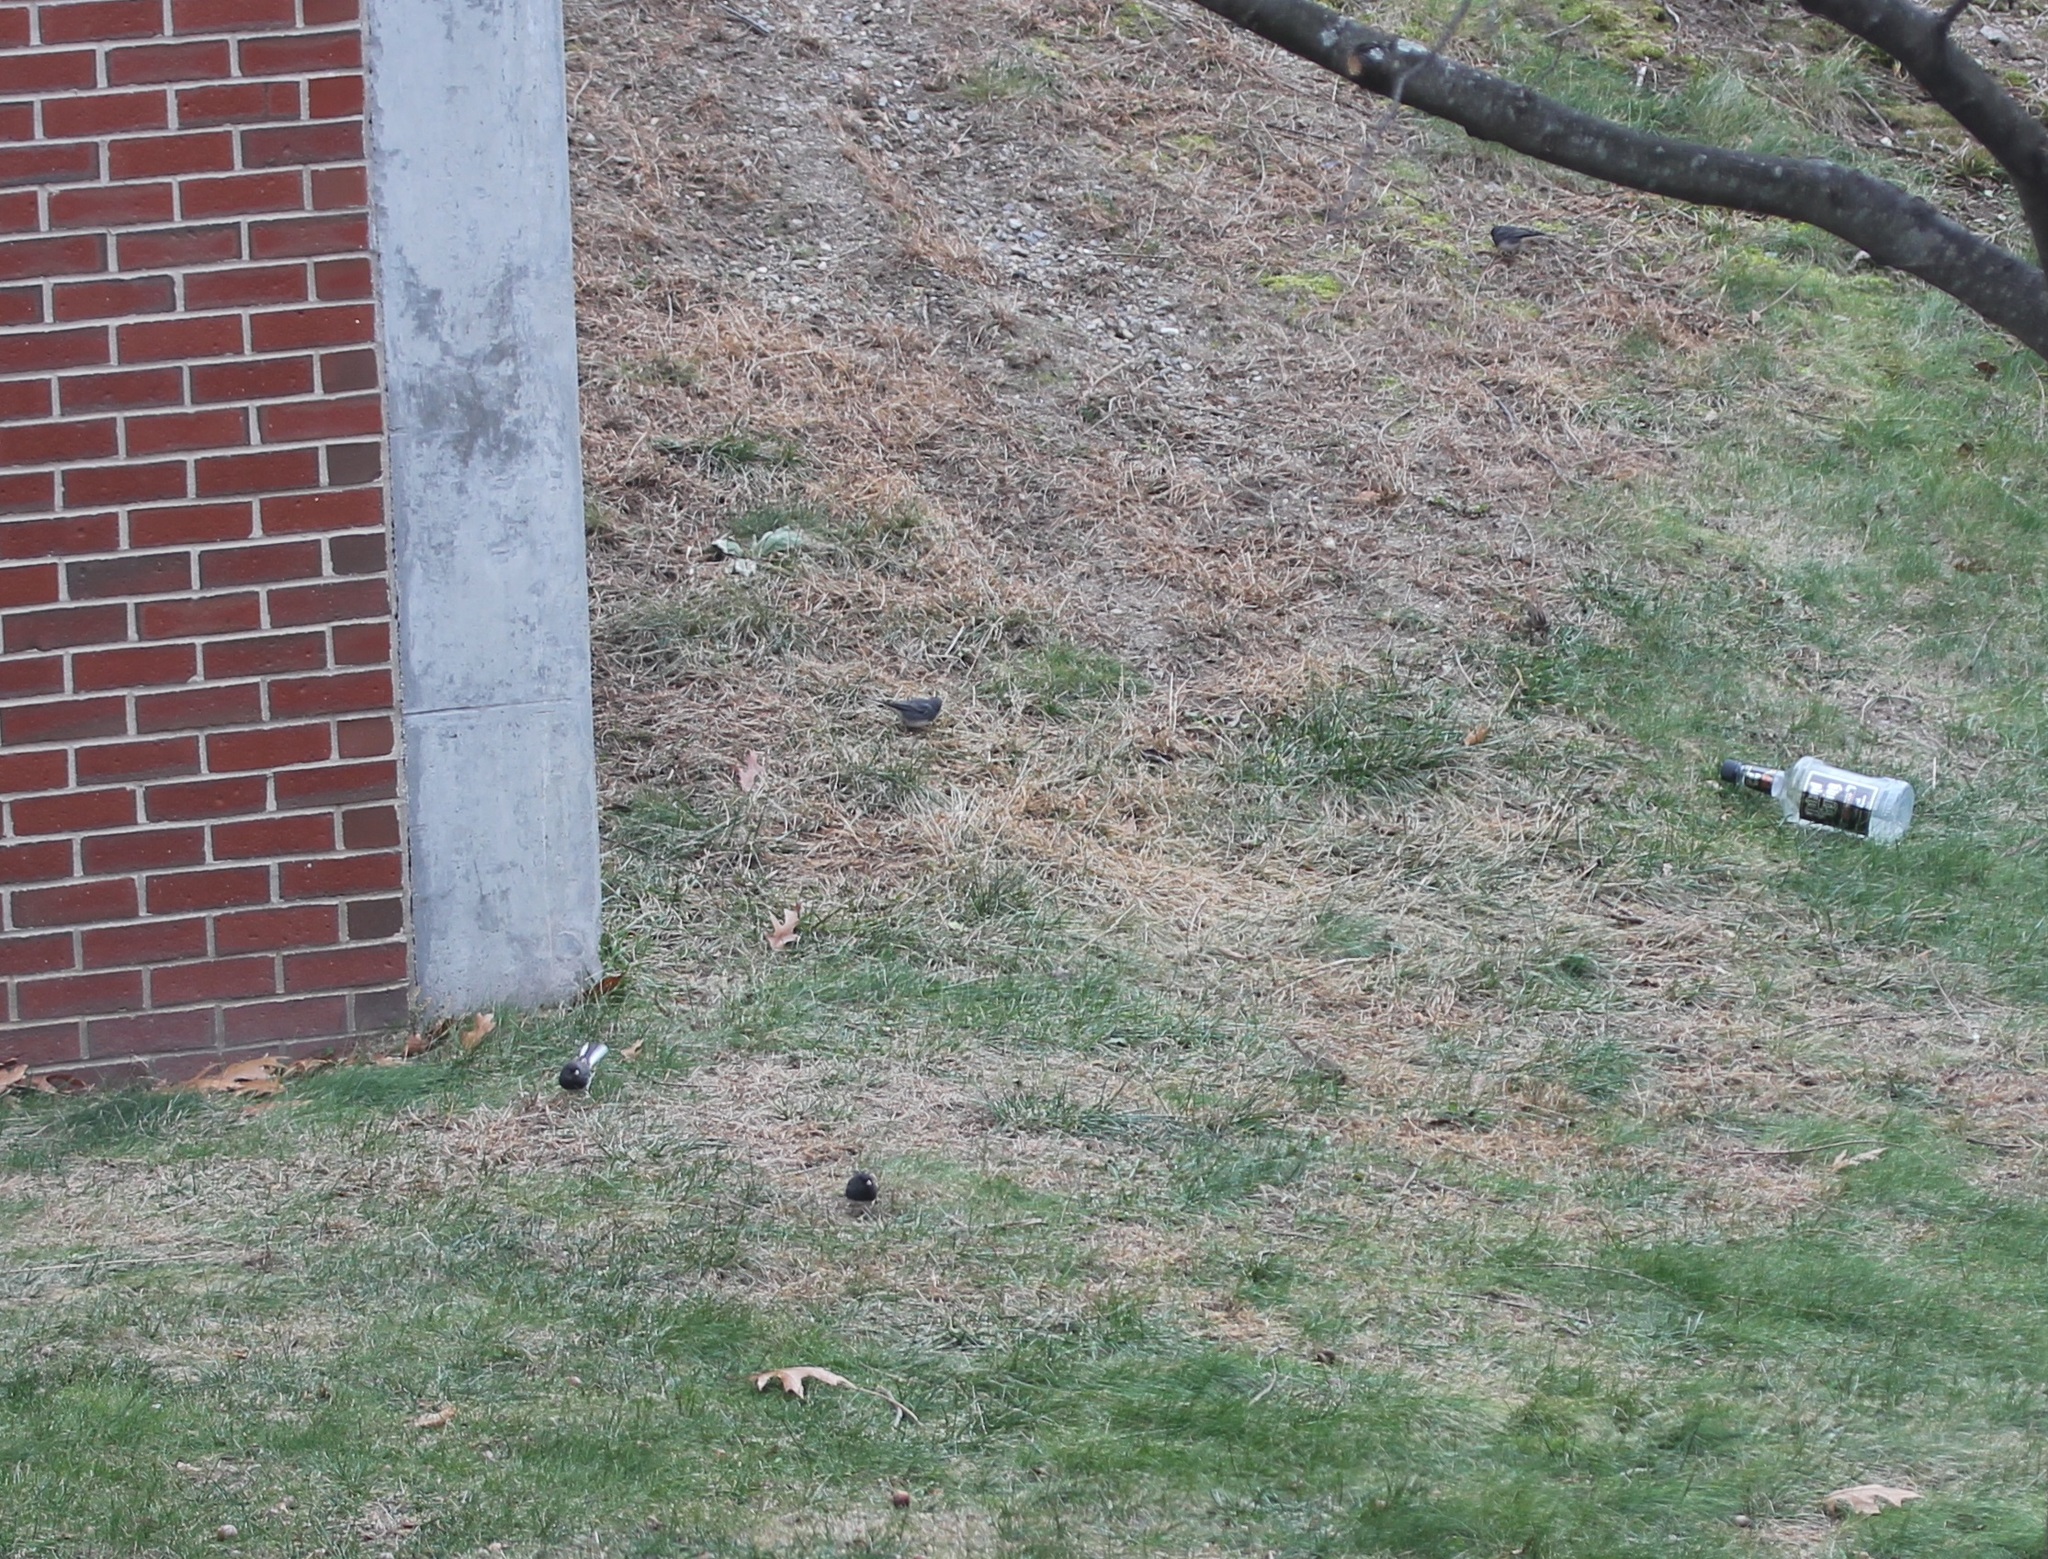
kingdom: Animalia
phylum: Chordata
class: Aves
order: Passeriformes
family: Passerellidae
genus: Junco
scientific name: Junco hyemalis
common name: Dark-eyed junco
